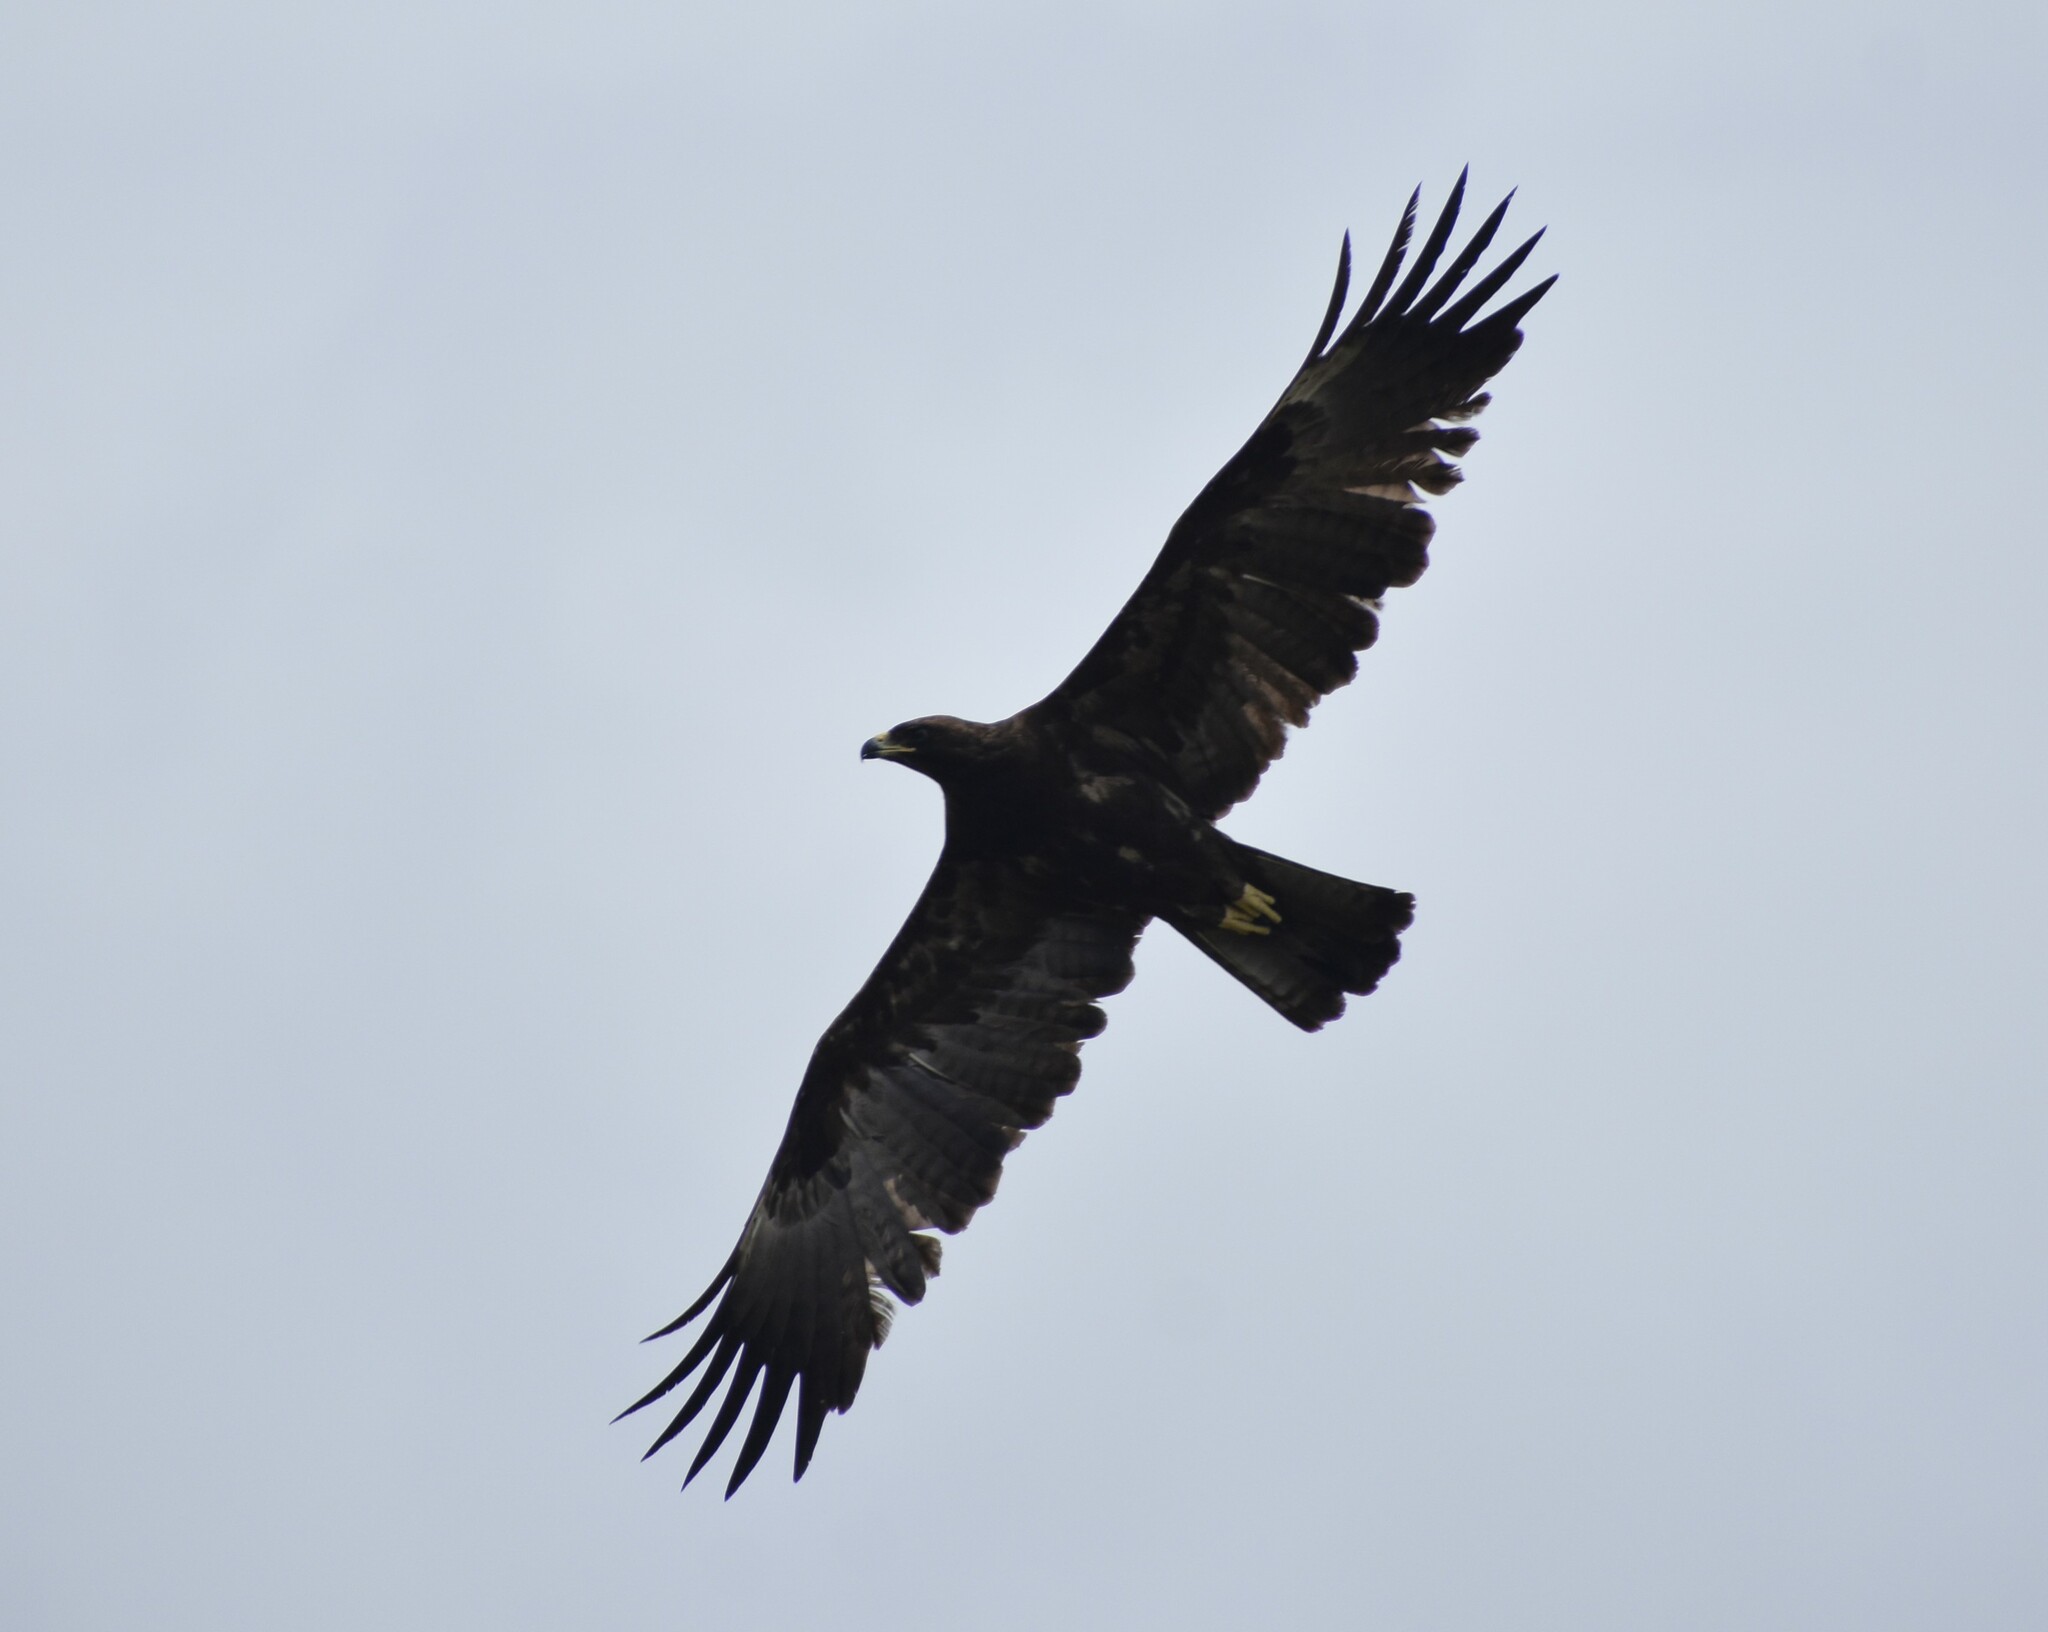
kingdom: Animalia
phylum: Chordata
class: Aves
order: Accipitriformes
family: Accipitridae
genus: Hieraaetus
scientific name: Hieraaetus wahlbergi
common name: Wahlberg's eagle
